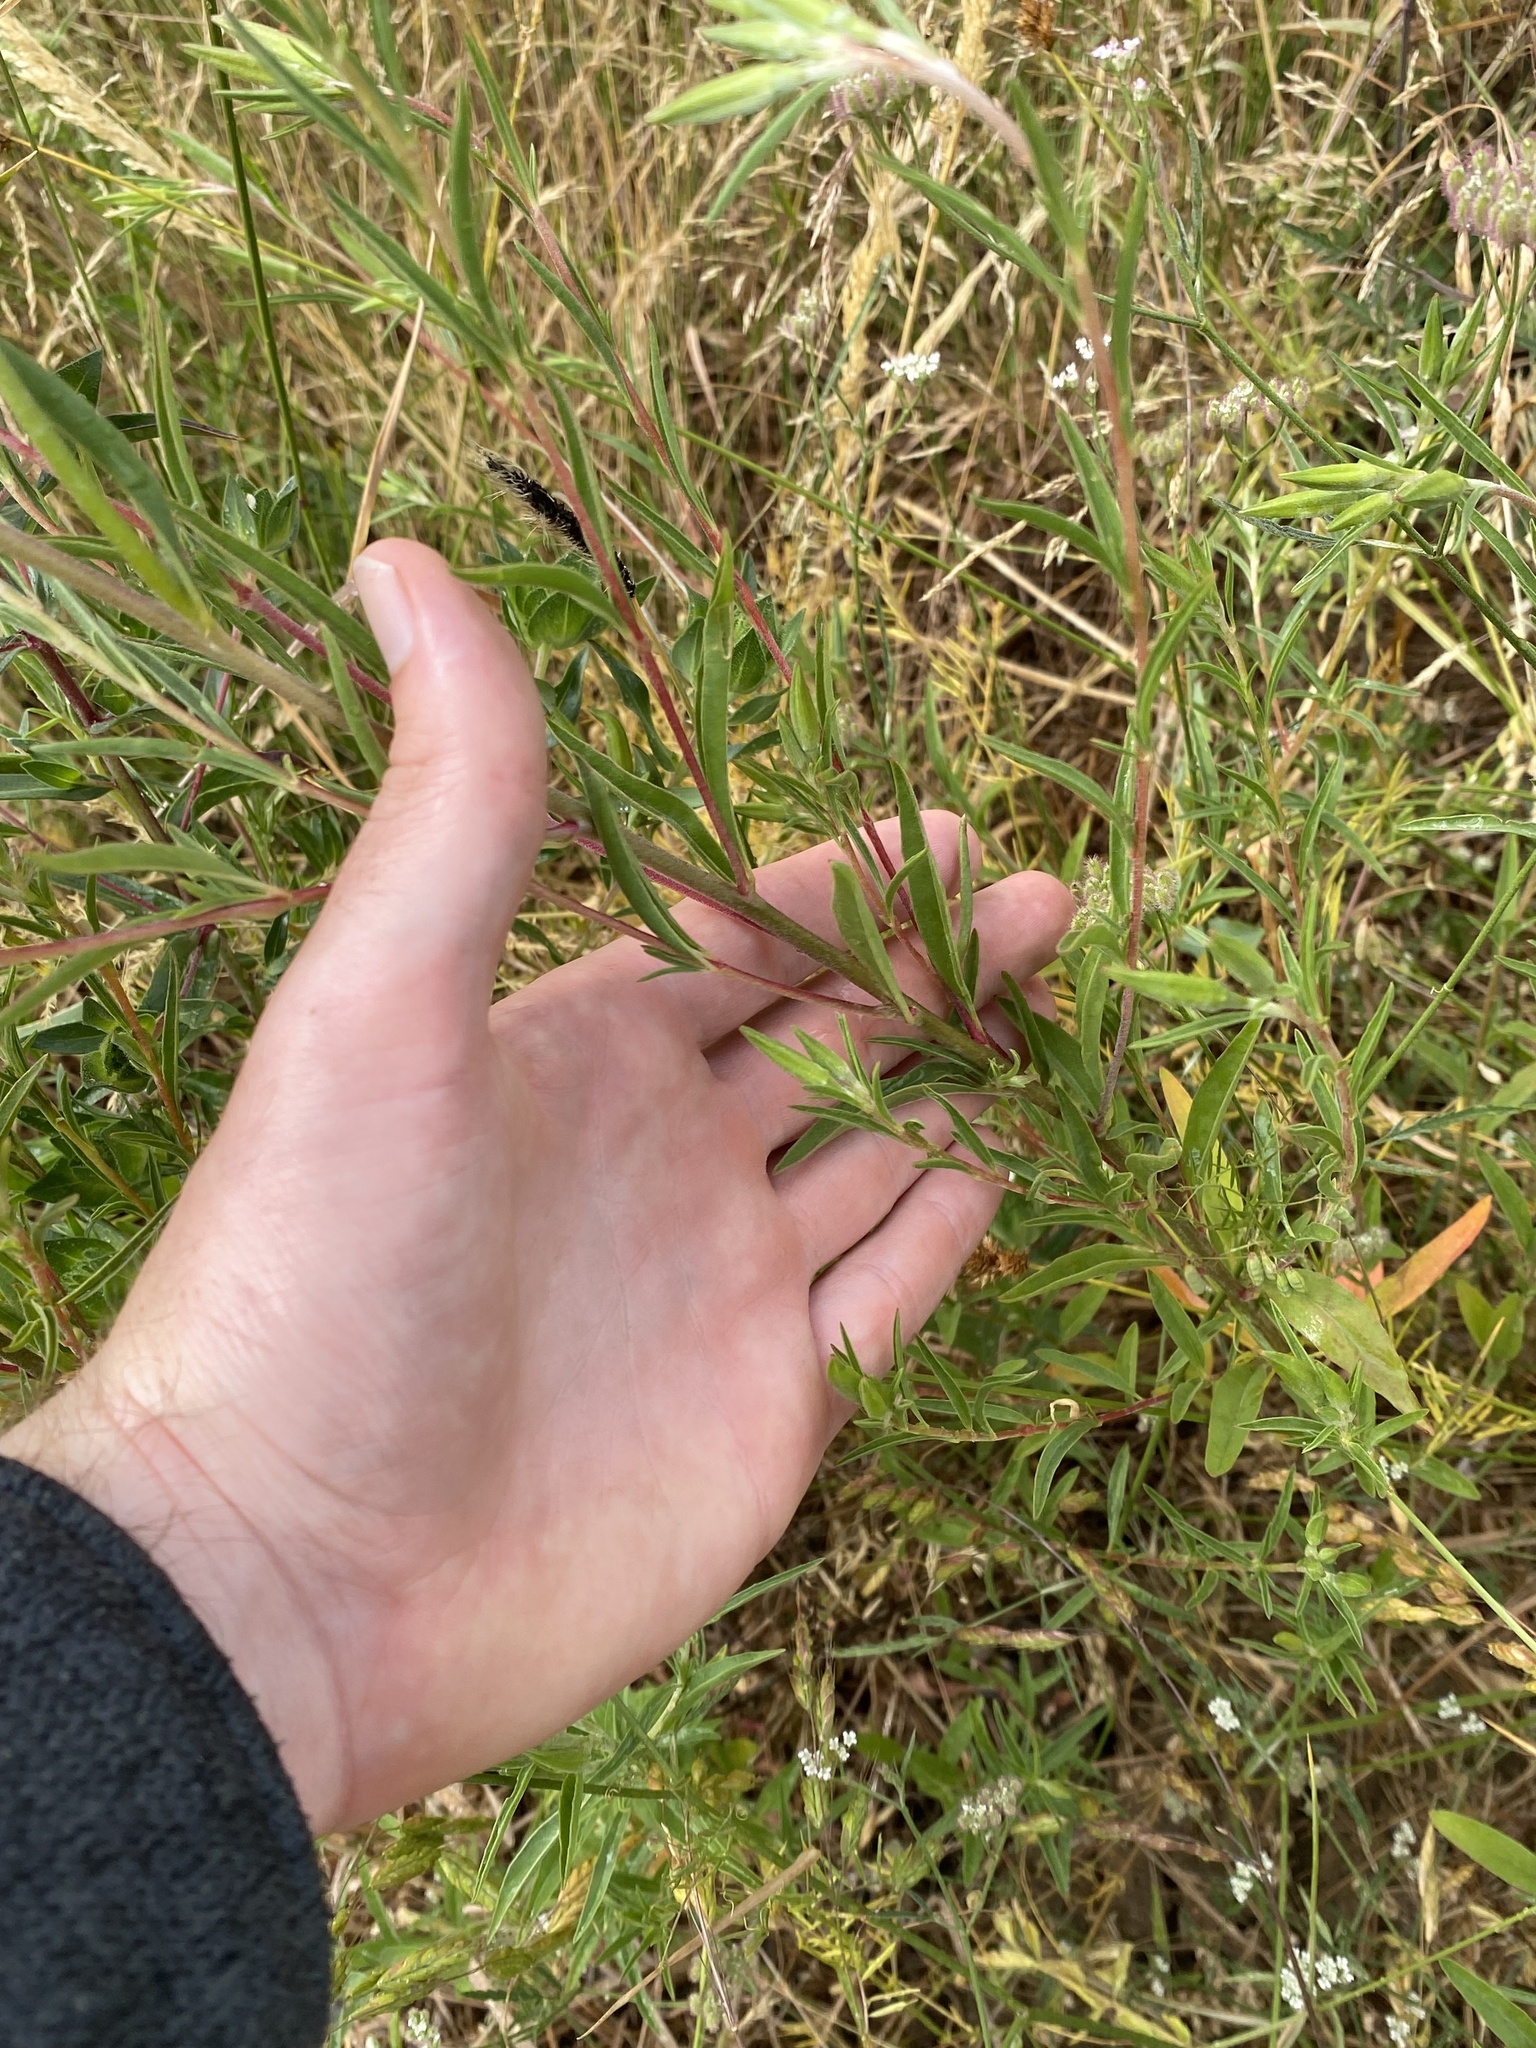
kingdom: Plantae
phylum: Tracheophyta
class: Magnoliopsida
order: Myrtales
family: Onagraceae
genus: Clarkia
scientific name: Clarkia amoena
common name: Godetia
